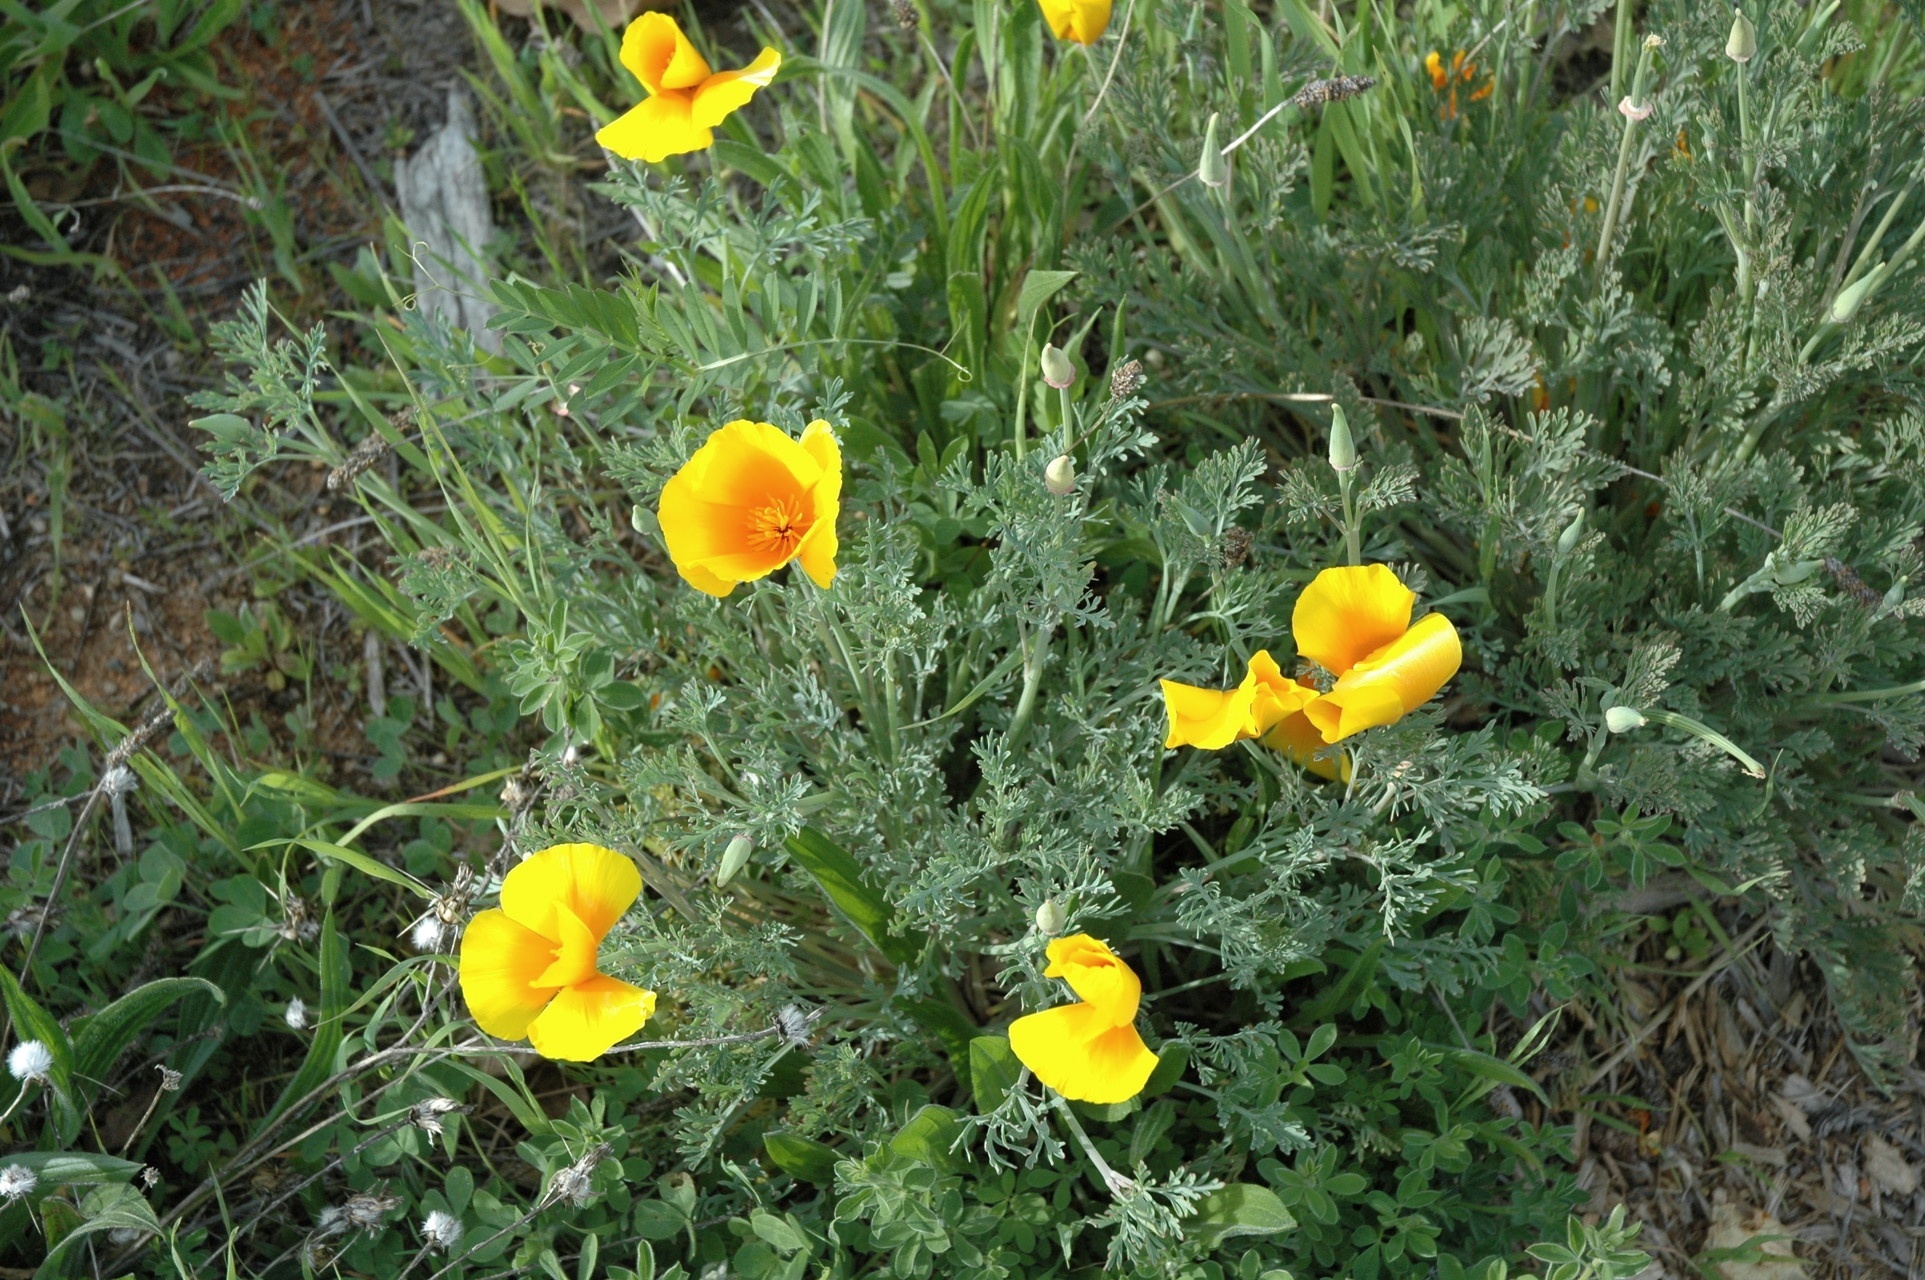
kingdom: Plantae
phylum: Tracheophyta
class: Magnoliopsida
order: Ranunculales
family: Papaveraceae
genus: Eschscholzia
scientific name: Eschscholzia californica
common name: California poppy
